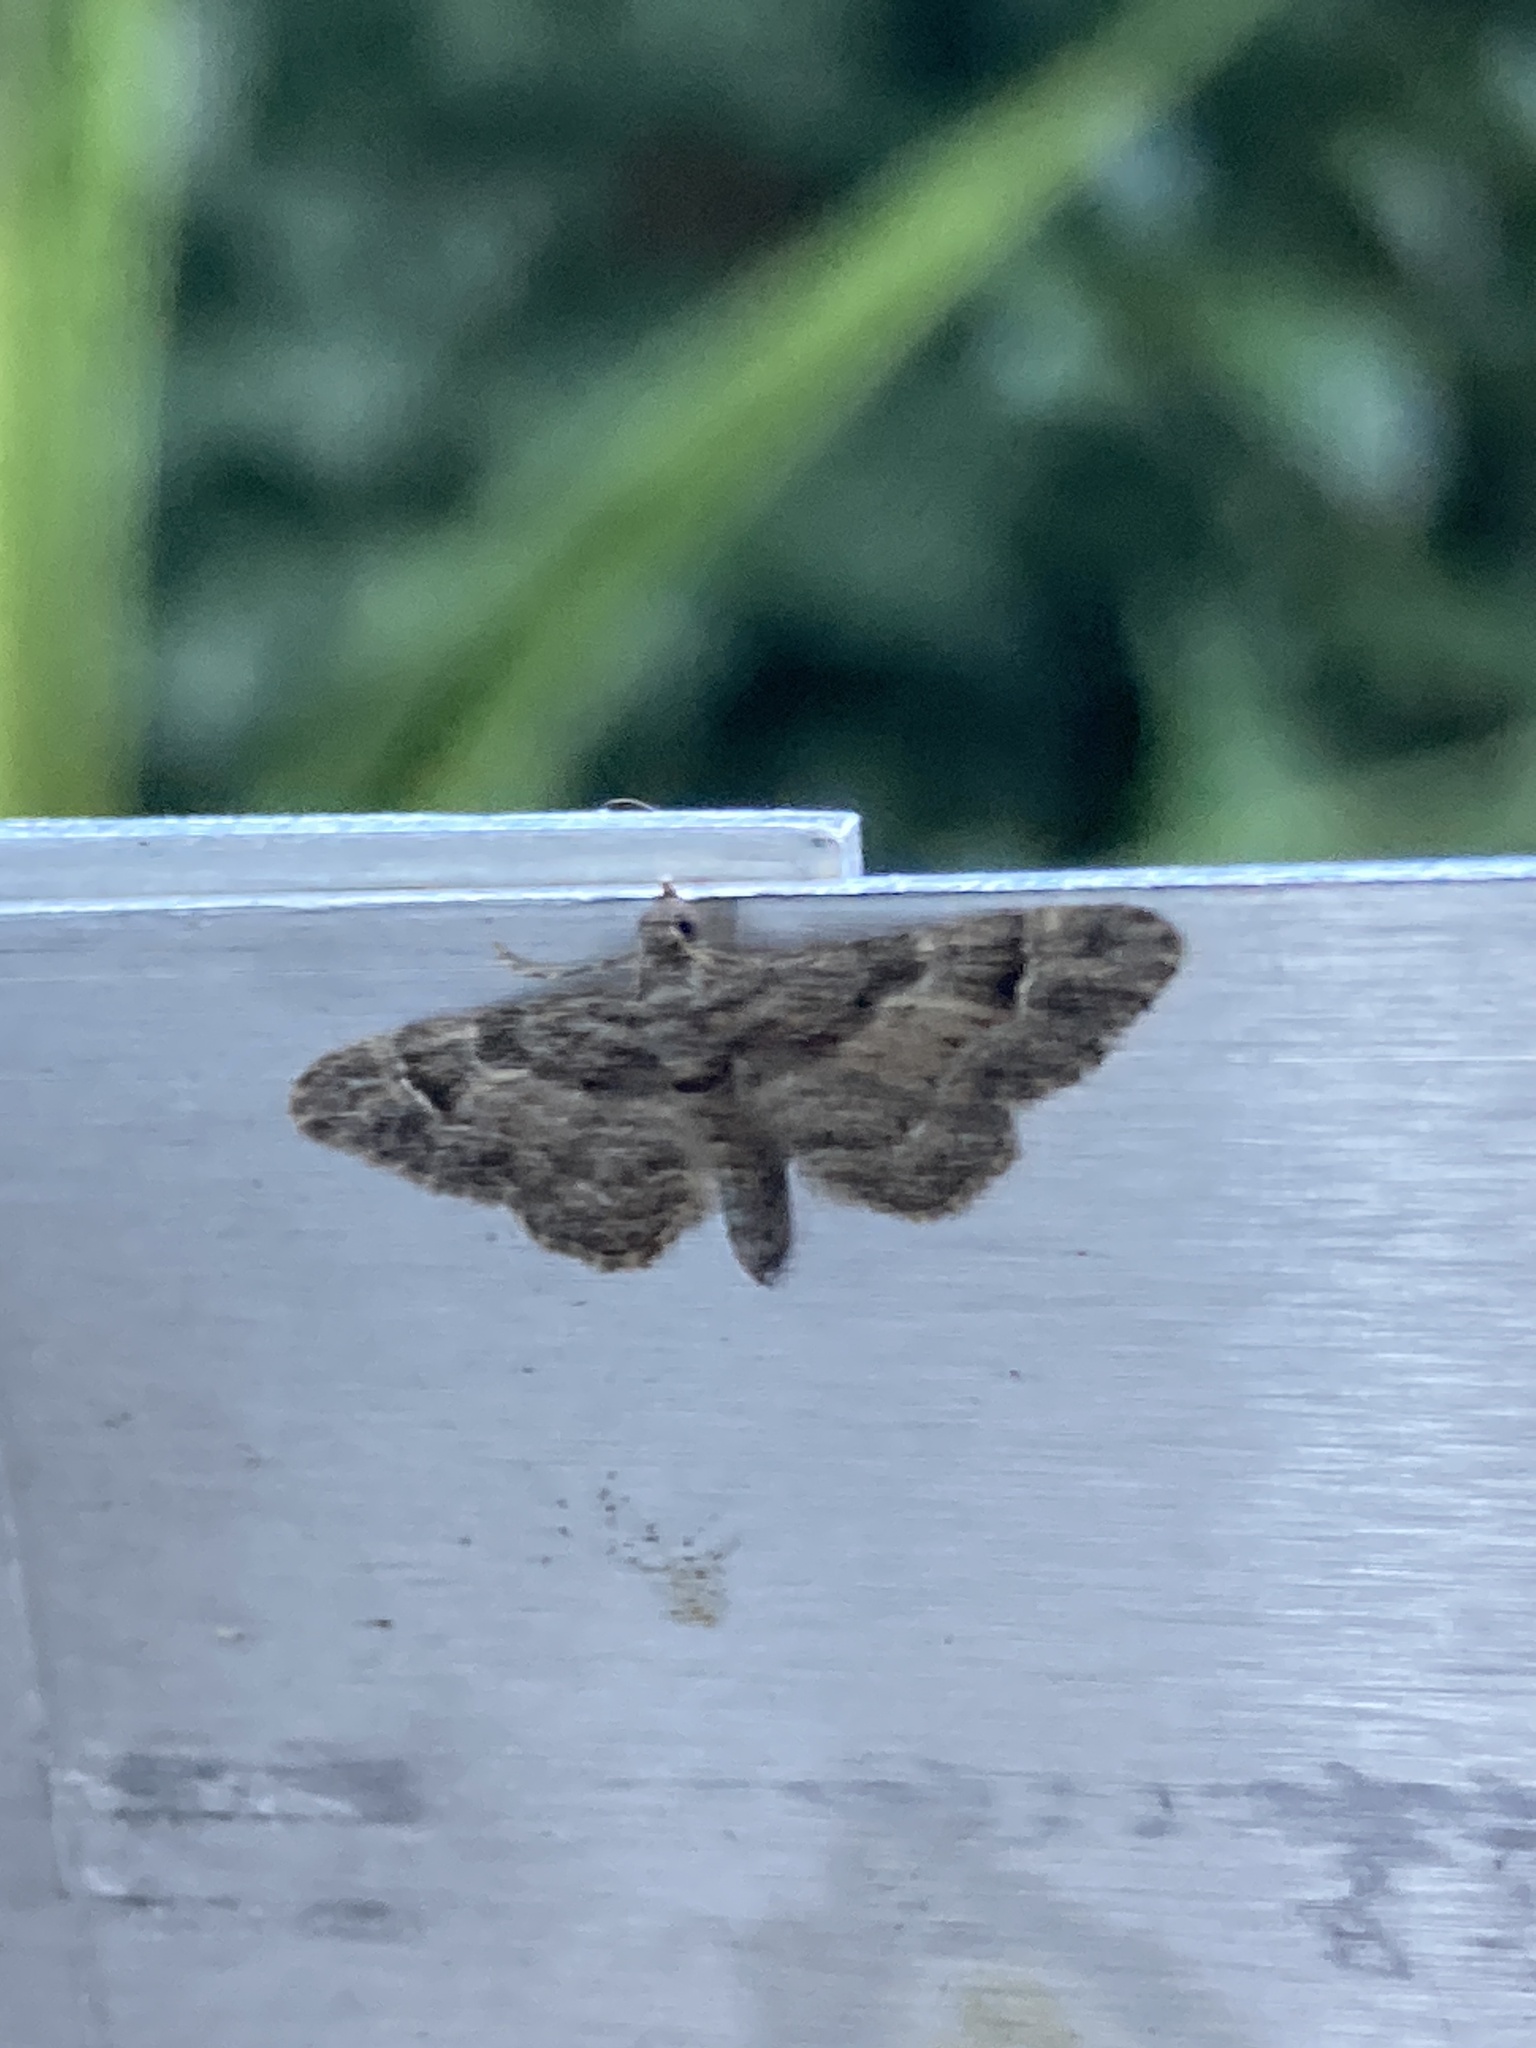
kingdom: Animalia
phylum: Arthropoda
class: Insecta
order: Lepidoptera
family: Geometridae
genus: Gymnoscelis
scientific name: Gymnoscelis rufifasciata
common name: Double-striped pug
